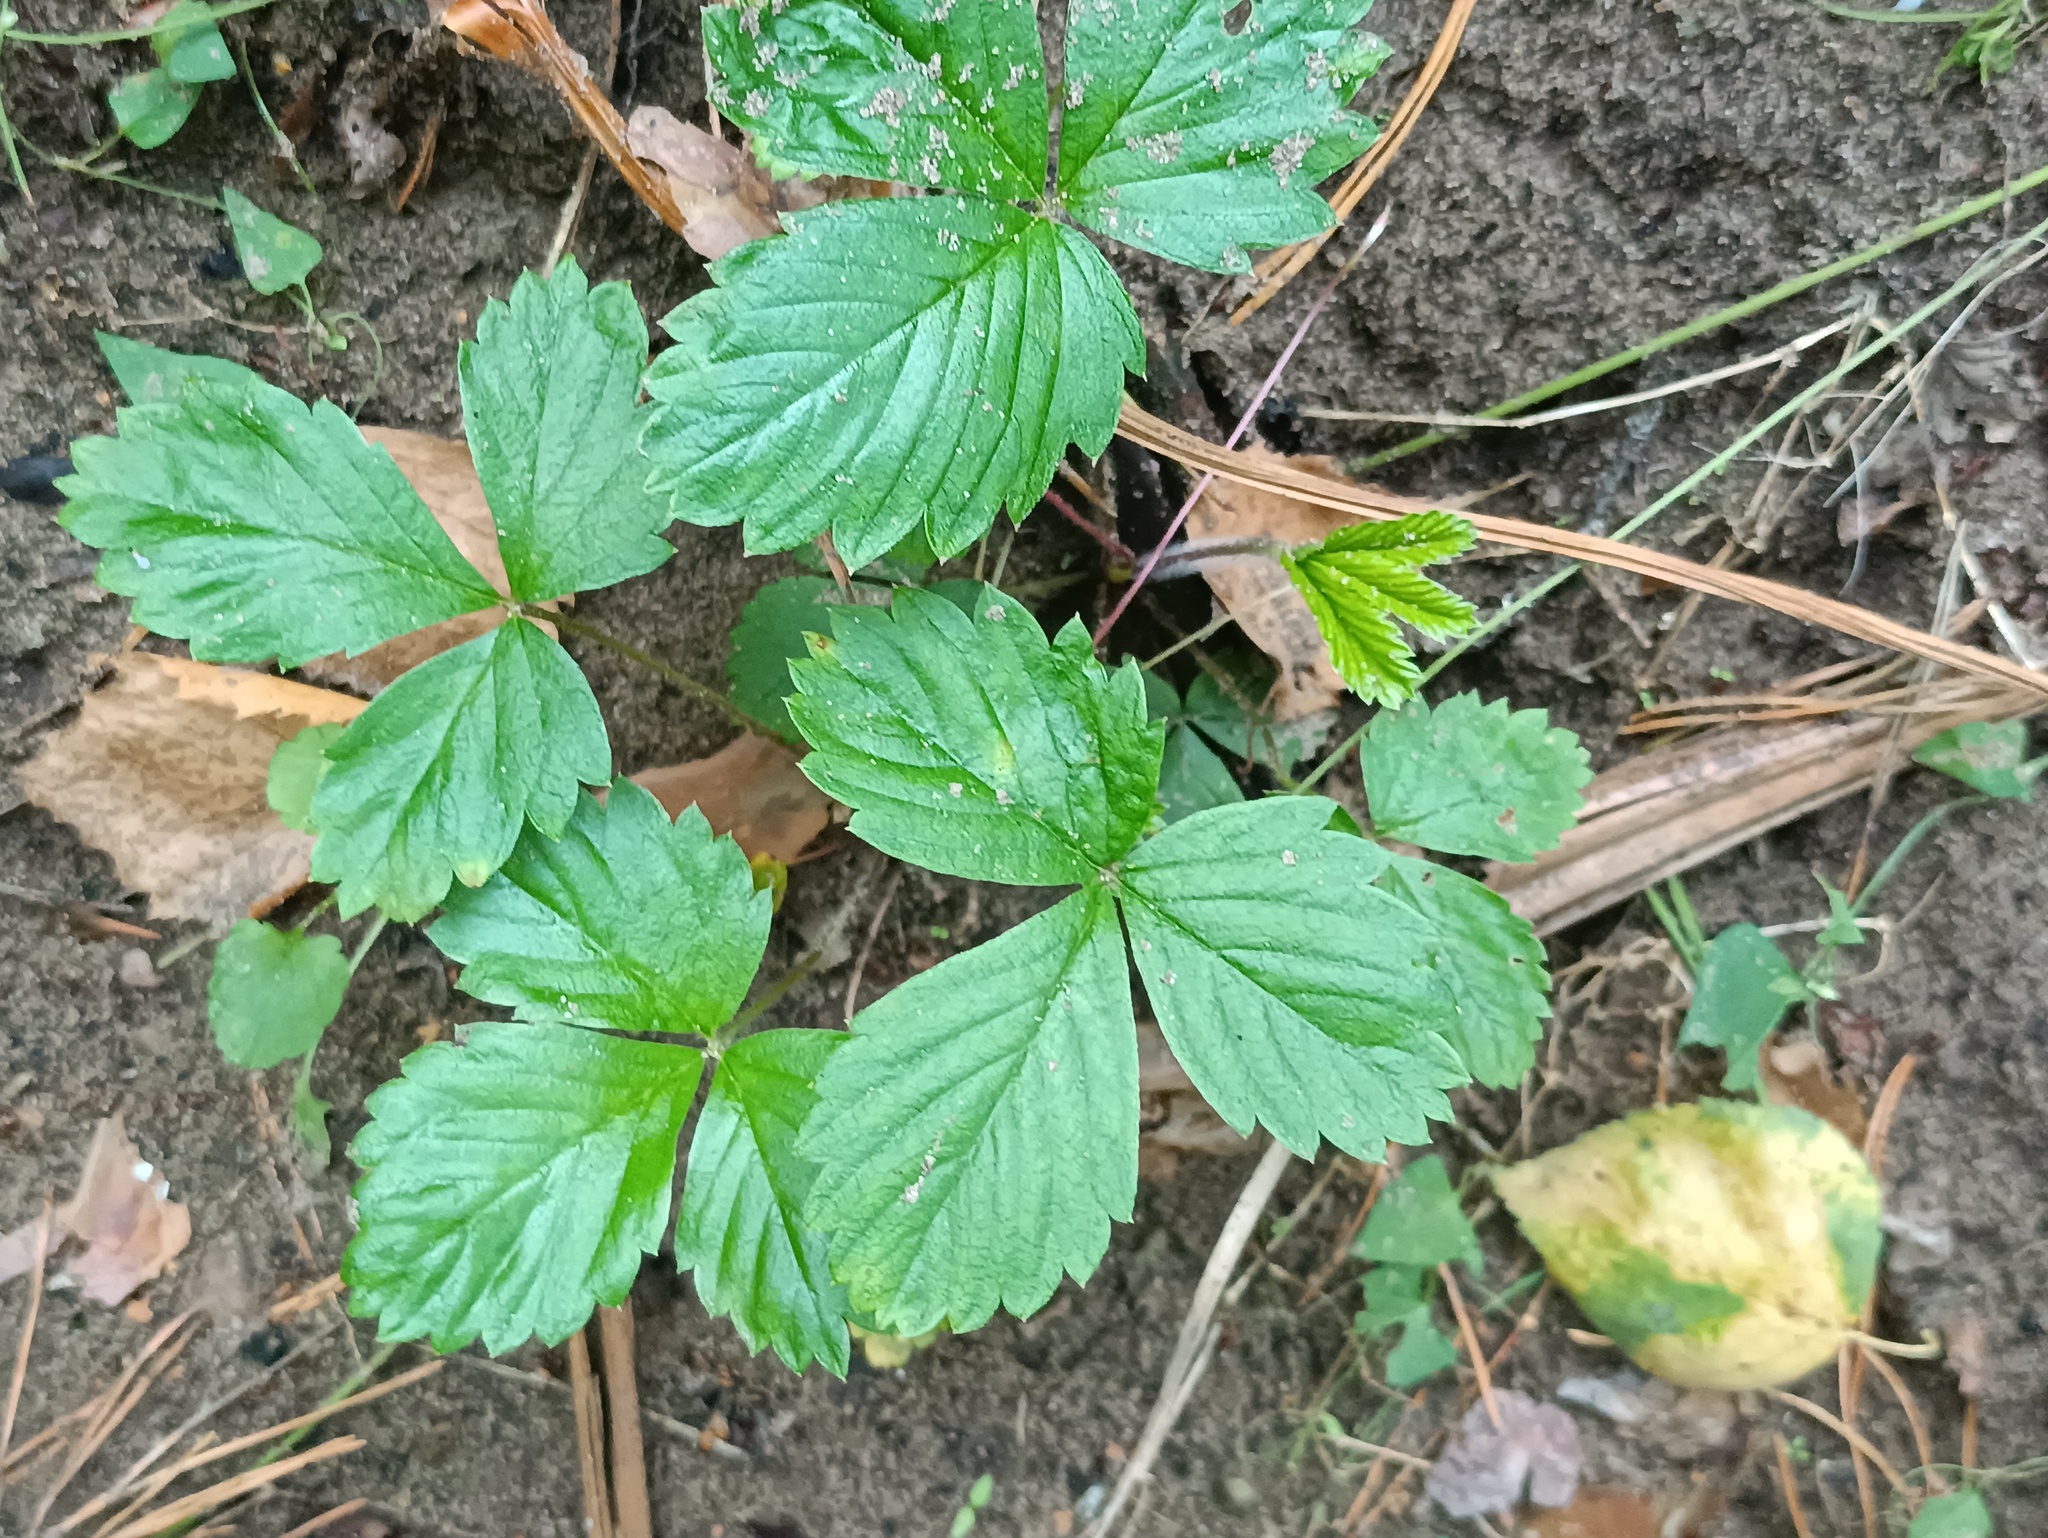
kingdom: Plantae
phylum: Tracheophyta
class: Magnoliopsida
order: Rosales
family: Rosaceae
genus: Fragaria
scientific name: Fragaria vesca
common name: Wild strawberry
